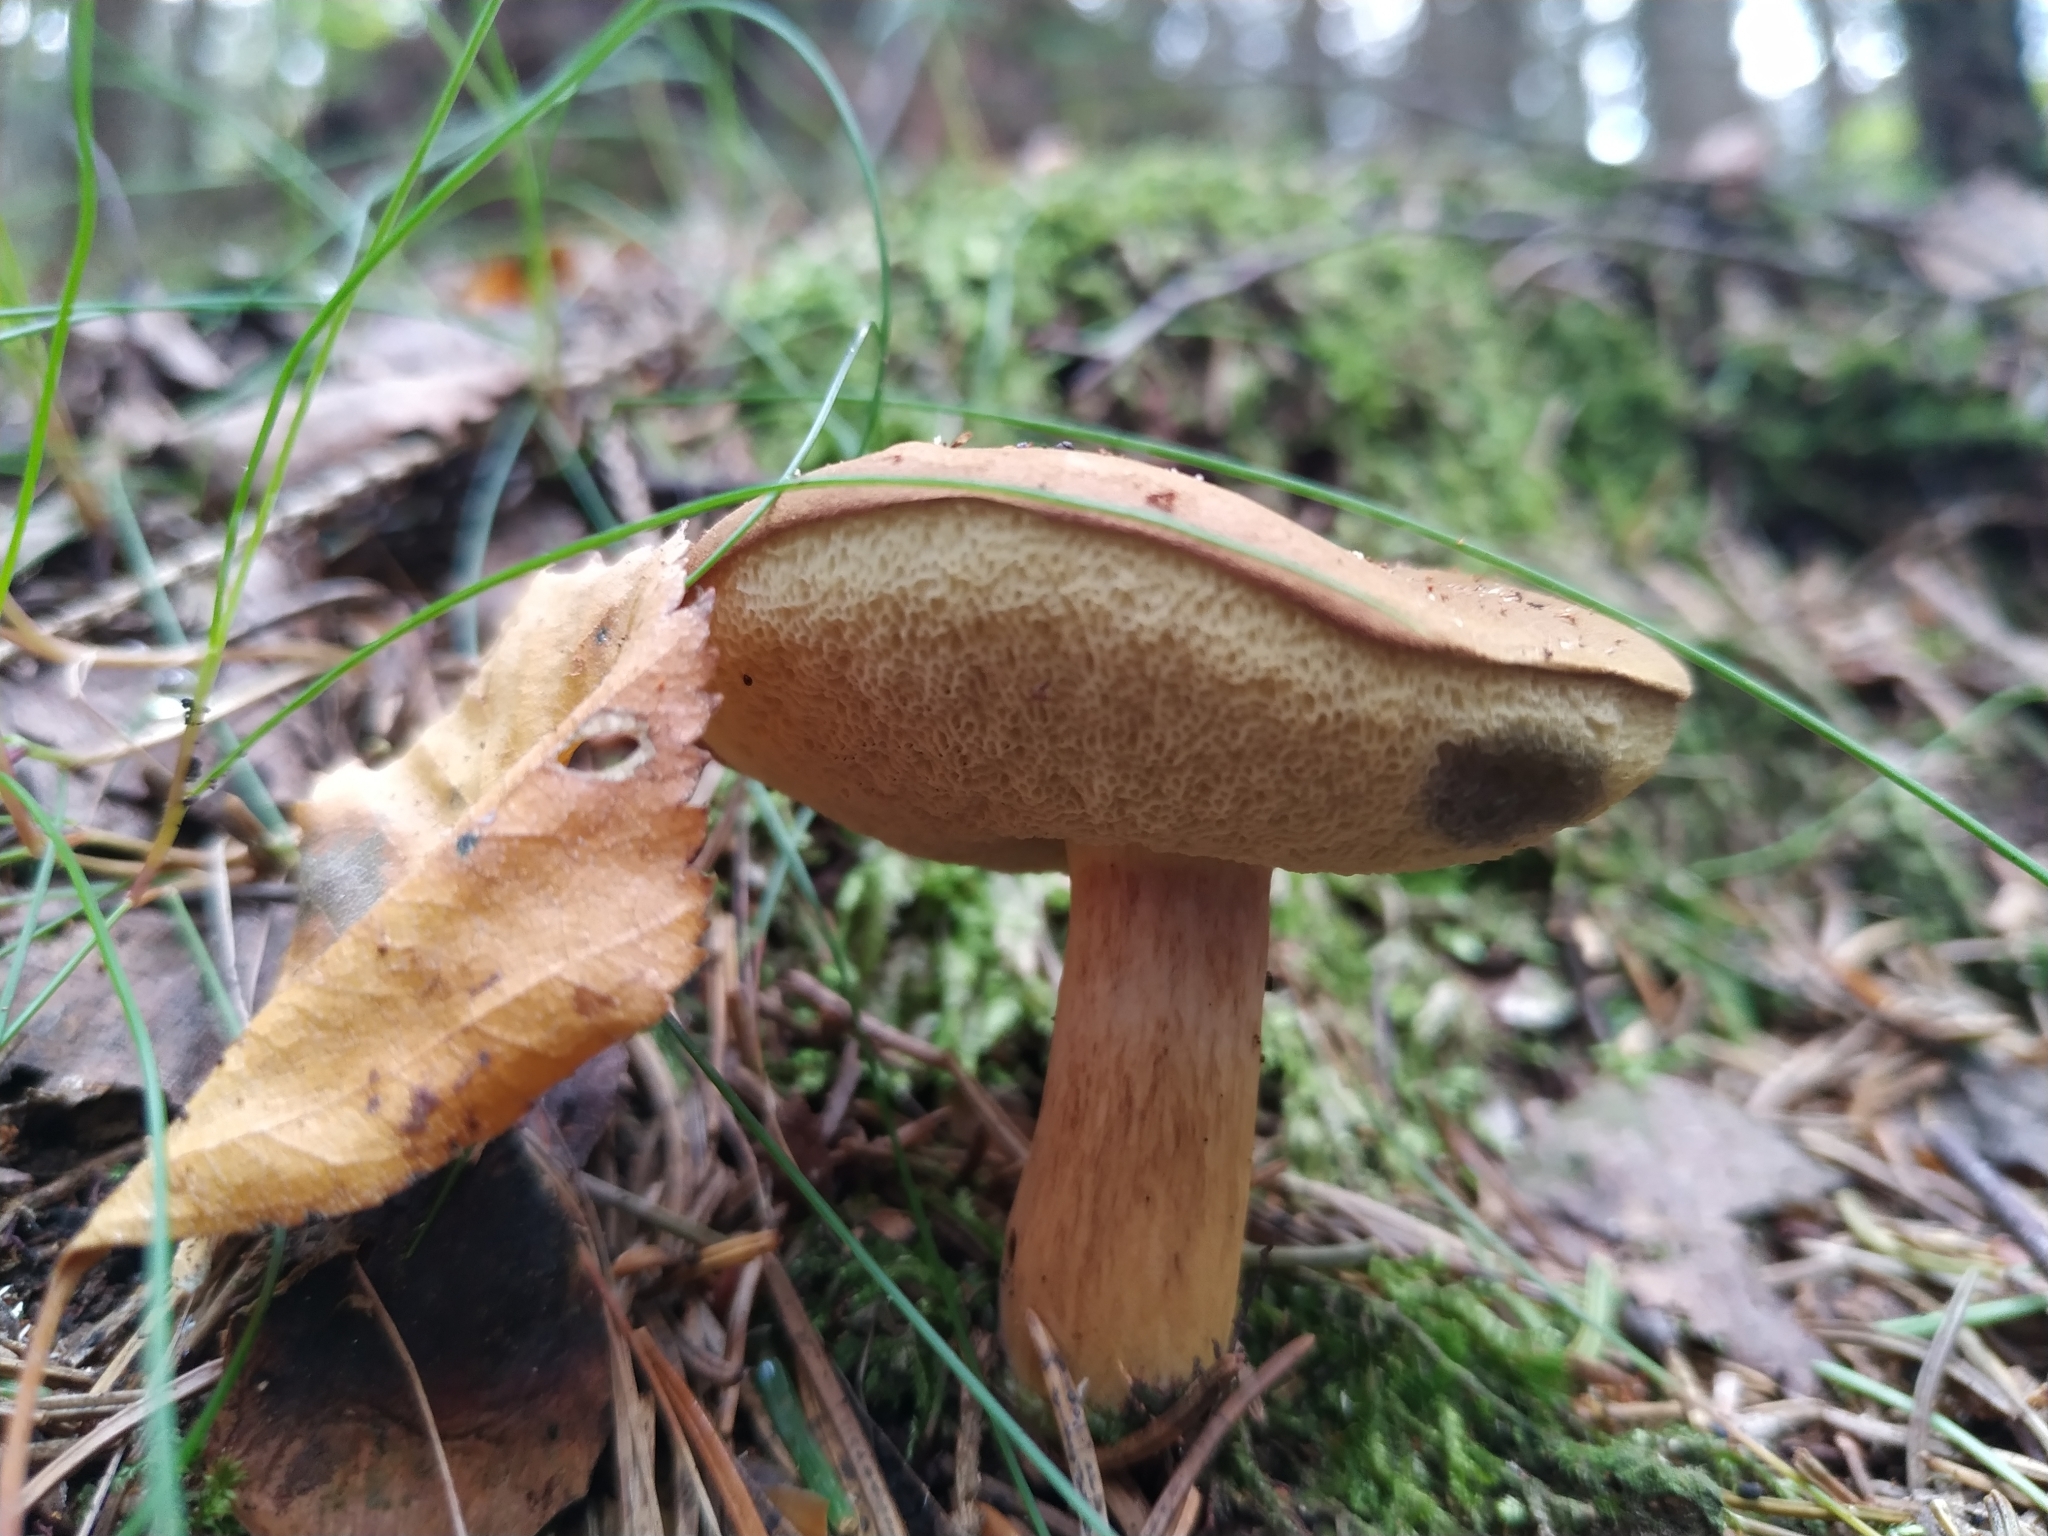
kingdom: Fungi
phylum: Basidiomycota
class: Agaricomycetes
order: Boletales
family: Boletaceae
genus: Imleria
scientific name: Imleria badia
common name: Bay bolete
